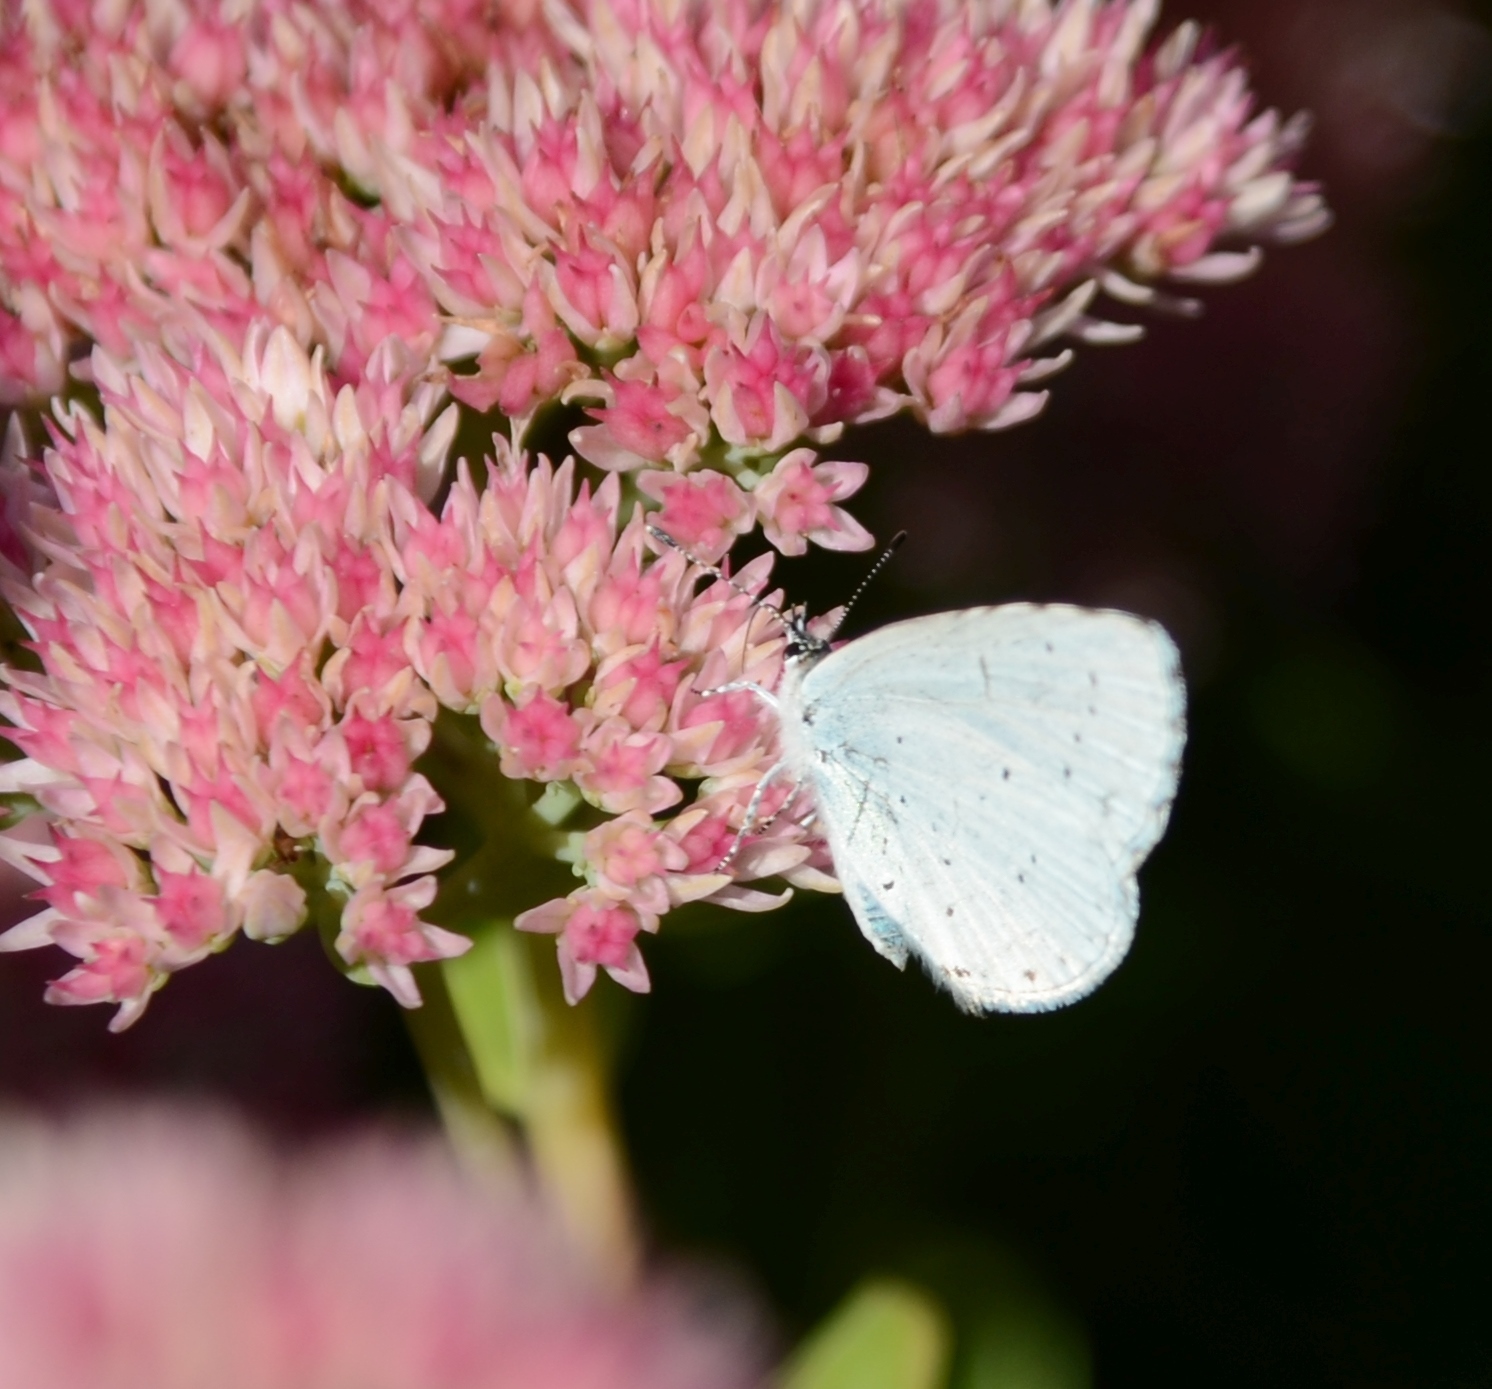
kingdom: Animalia
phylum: Arthropoda
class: Insecta
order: Lepidoptera
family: Lycaenidae
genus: Celastrina
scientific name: Celastrina argiolus
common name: Holly blue
